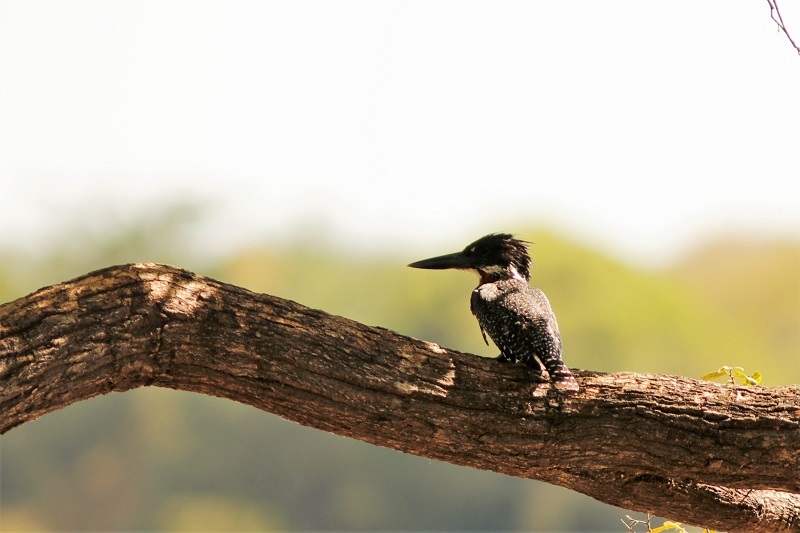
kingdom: Animalia
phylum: Chordata
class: Aves
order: Coraciiformes
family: Alcedinidae
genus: Megaceryle
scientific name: Megaceryle maxima
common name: Giant kingfisher
